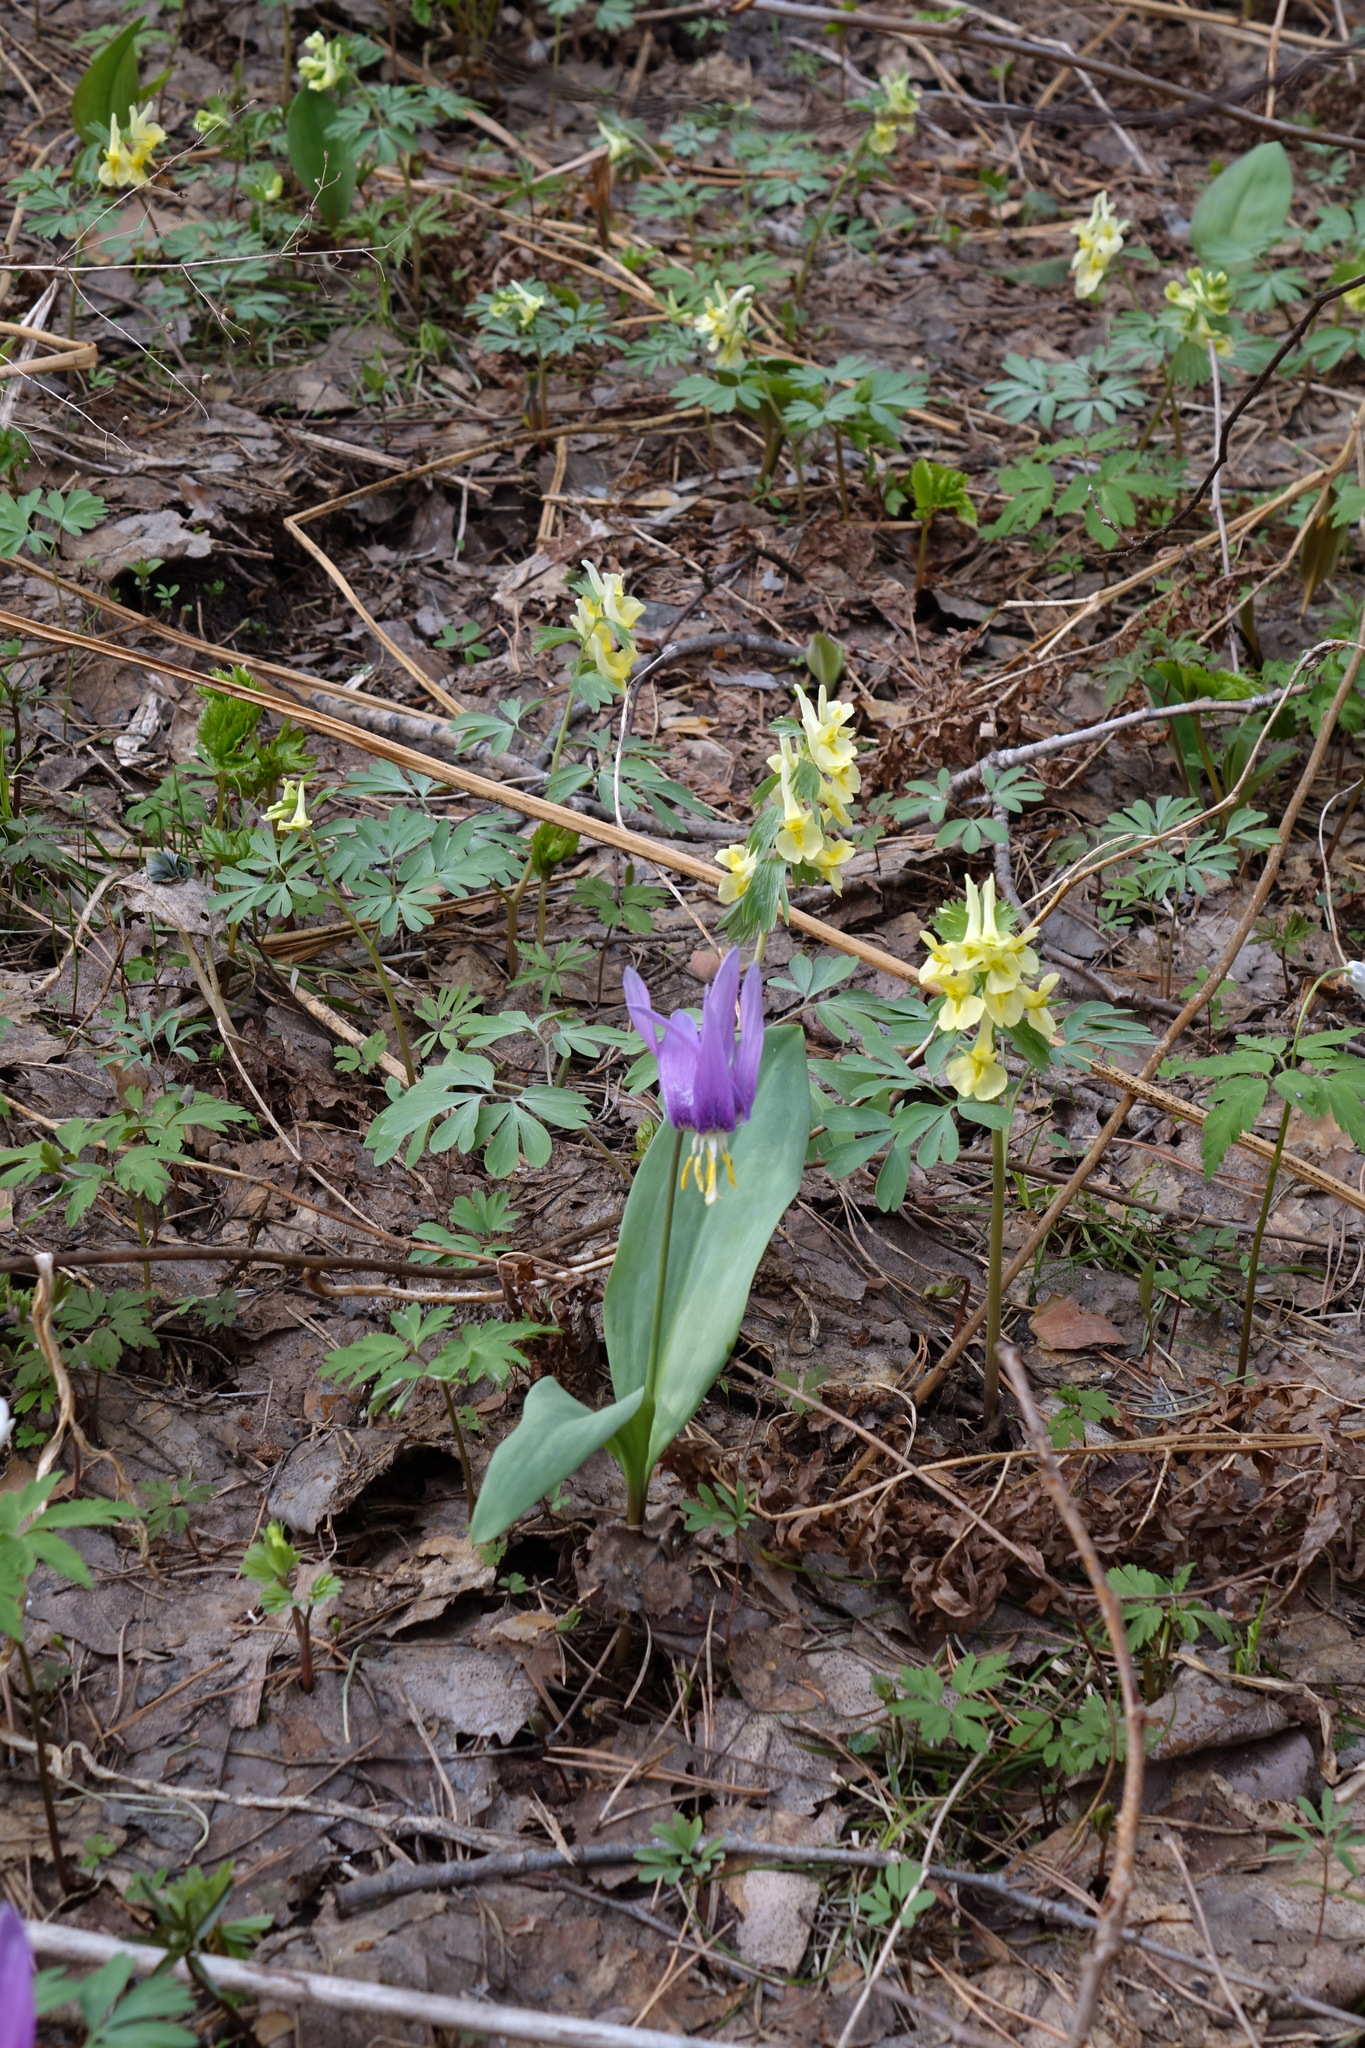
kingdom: Plantae
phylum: Tracheophyta
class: Magnoliopsida
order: Ranunculales
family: Papaveraceae
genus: Corydalis
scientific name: Corydalis bracteata
